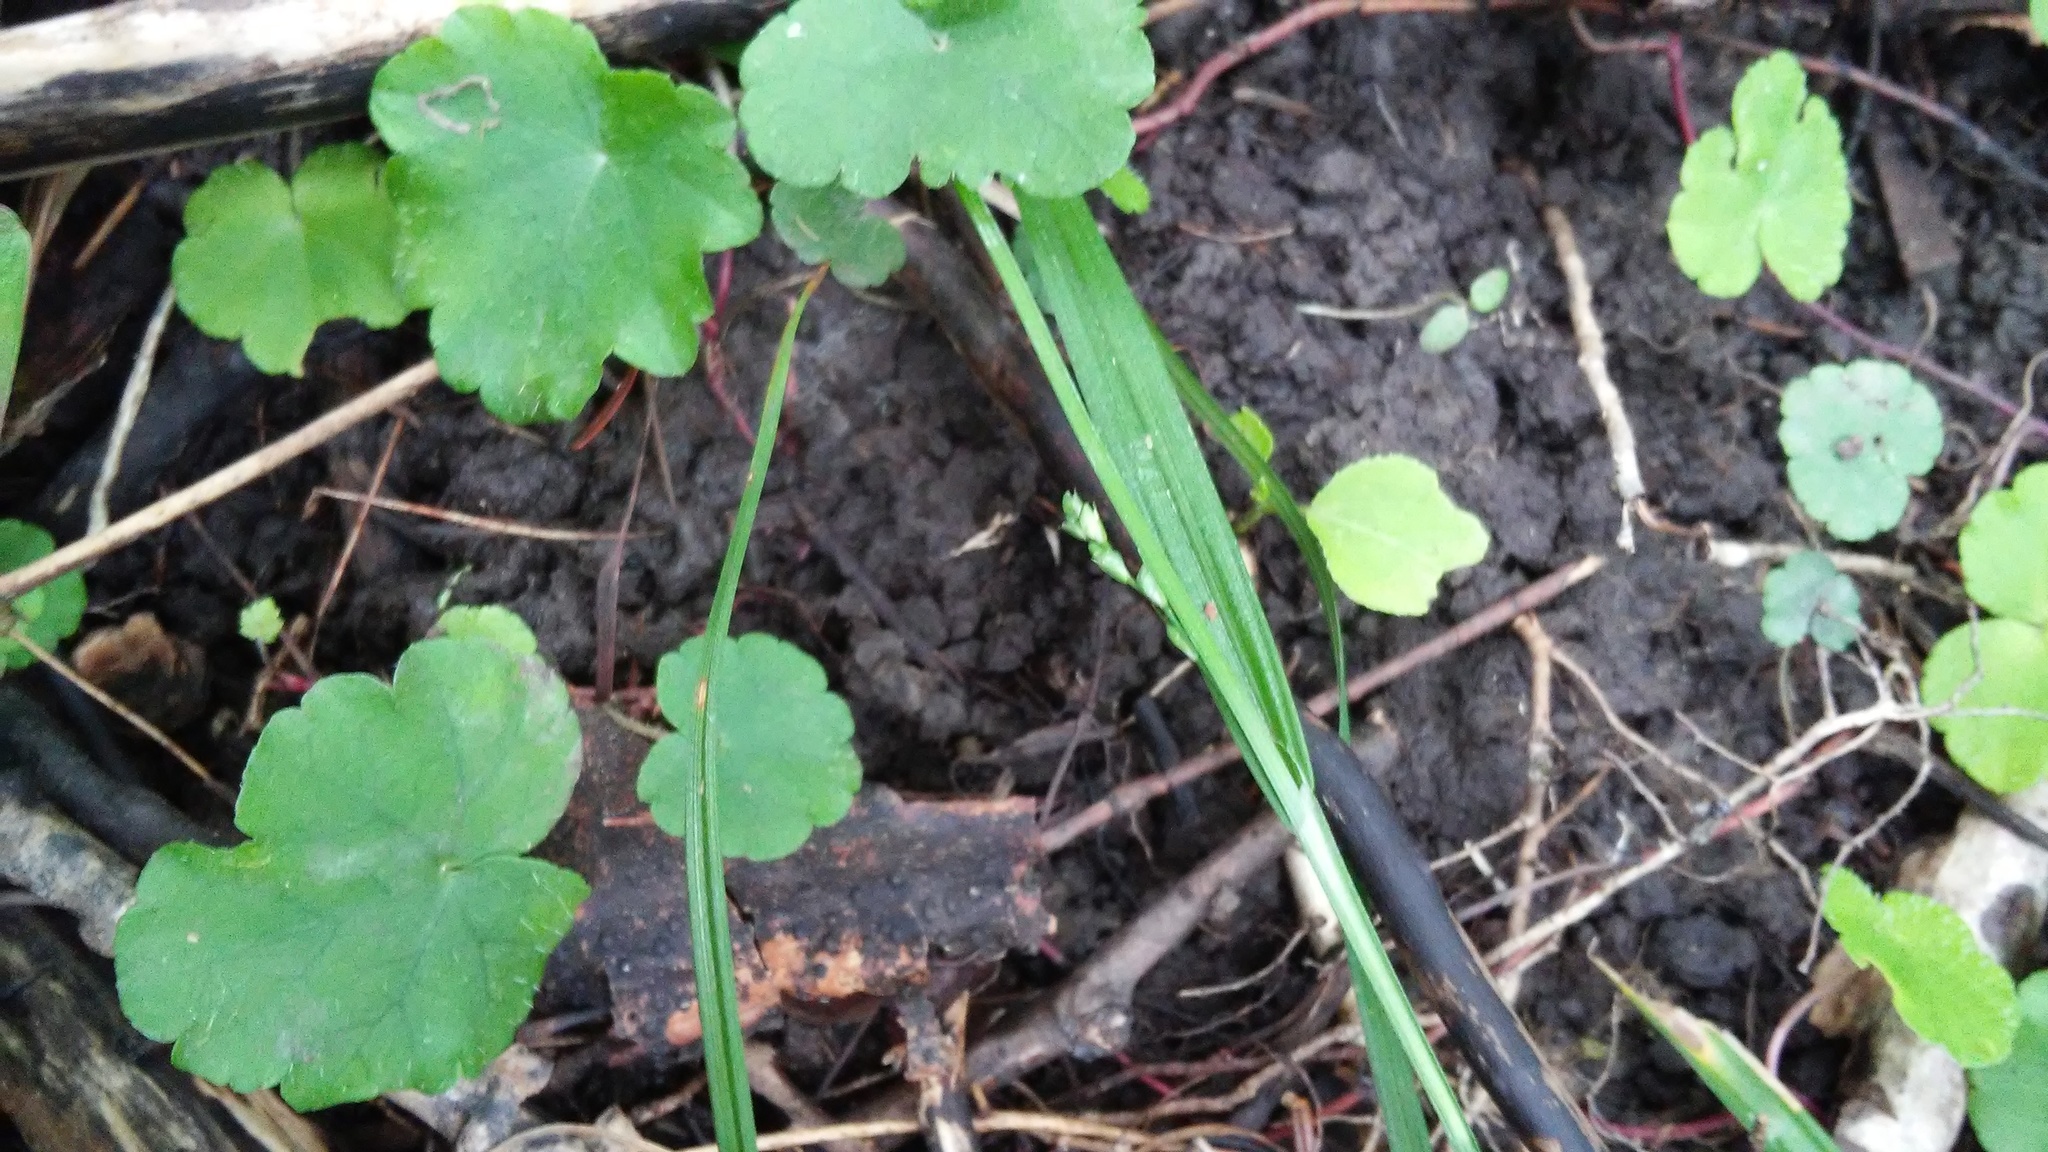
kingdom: Plantae
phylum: Tracheophyta
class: Magnoliopsida
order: Saxifragales
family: Saxifragaceae
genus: Mitella
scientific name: Mitella nuda
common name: Bare-stemmed bishop's-cap
